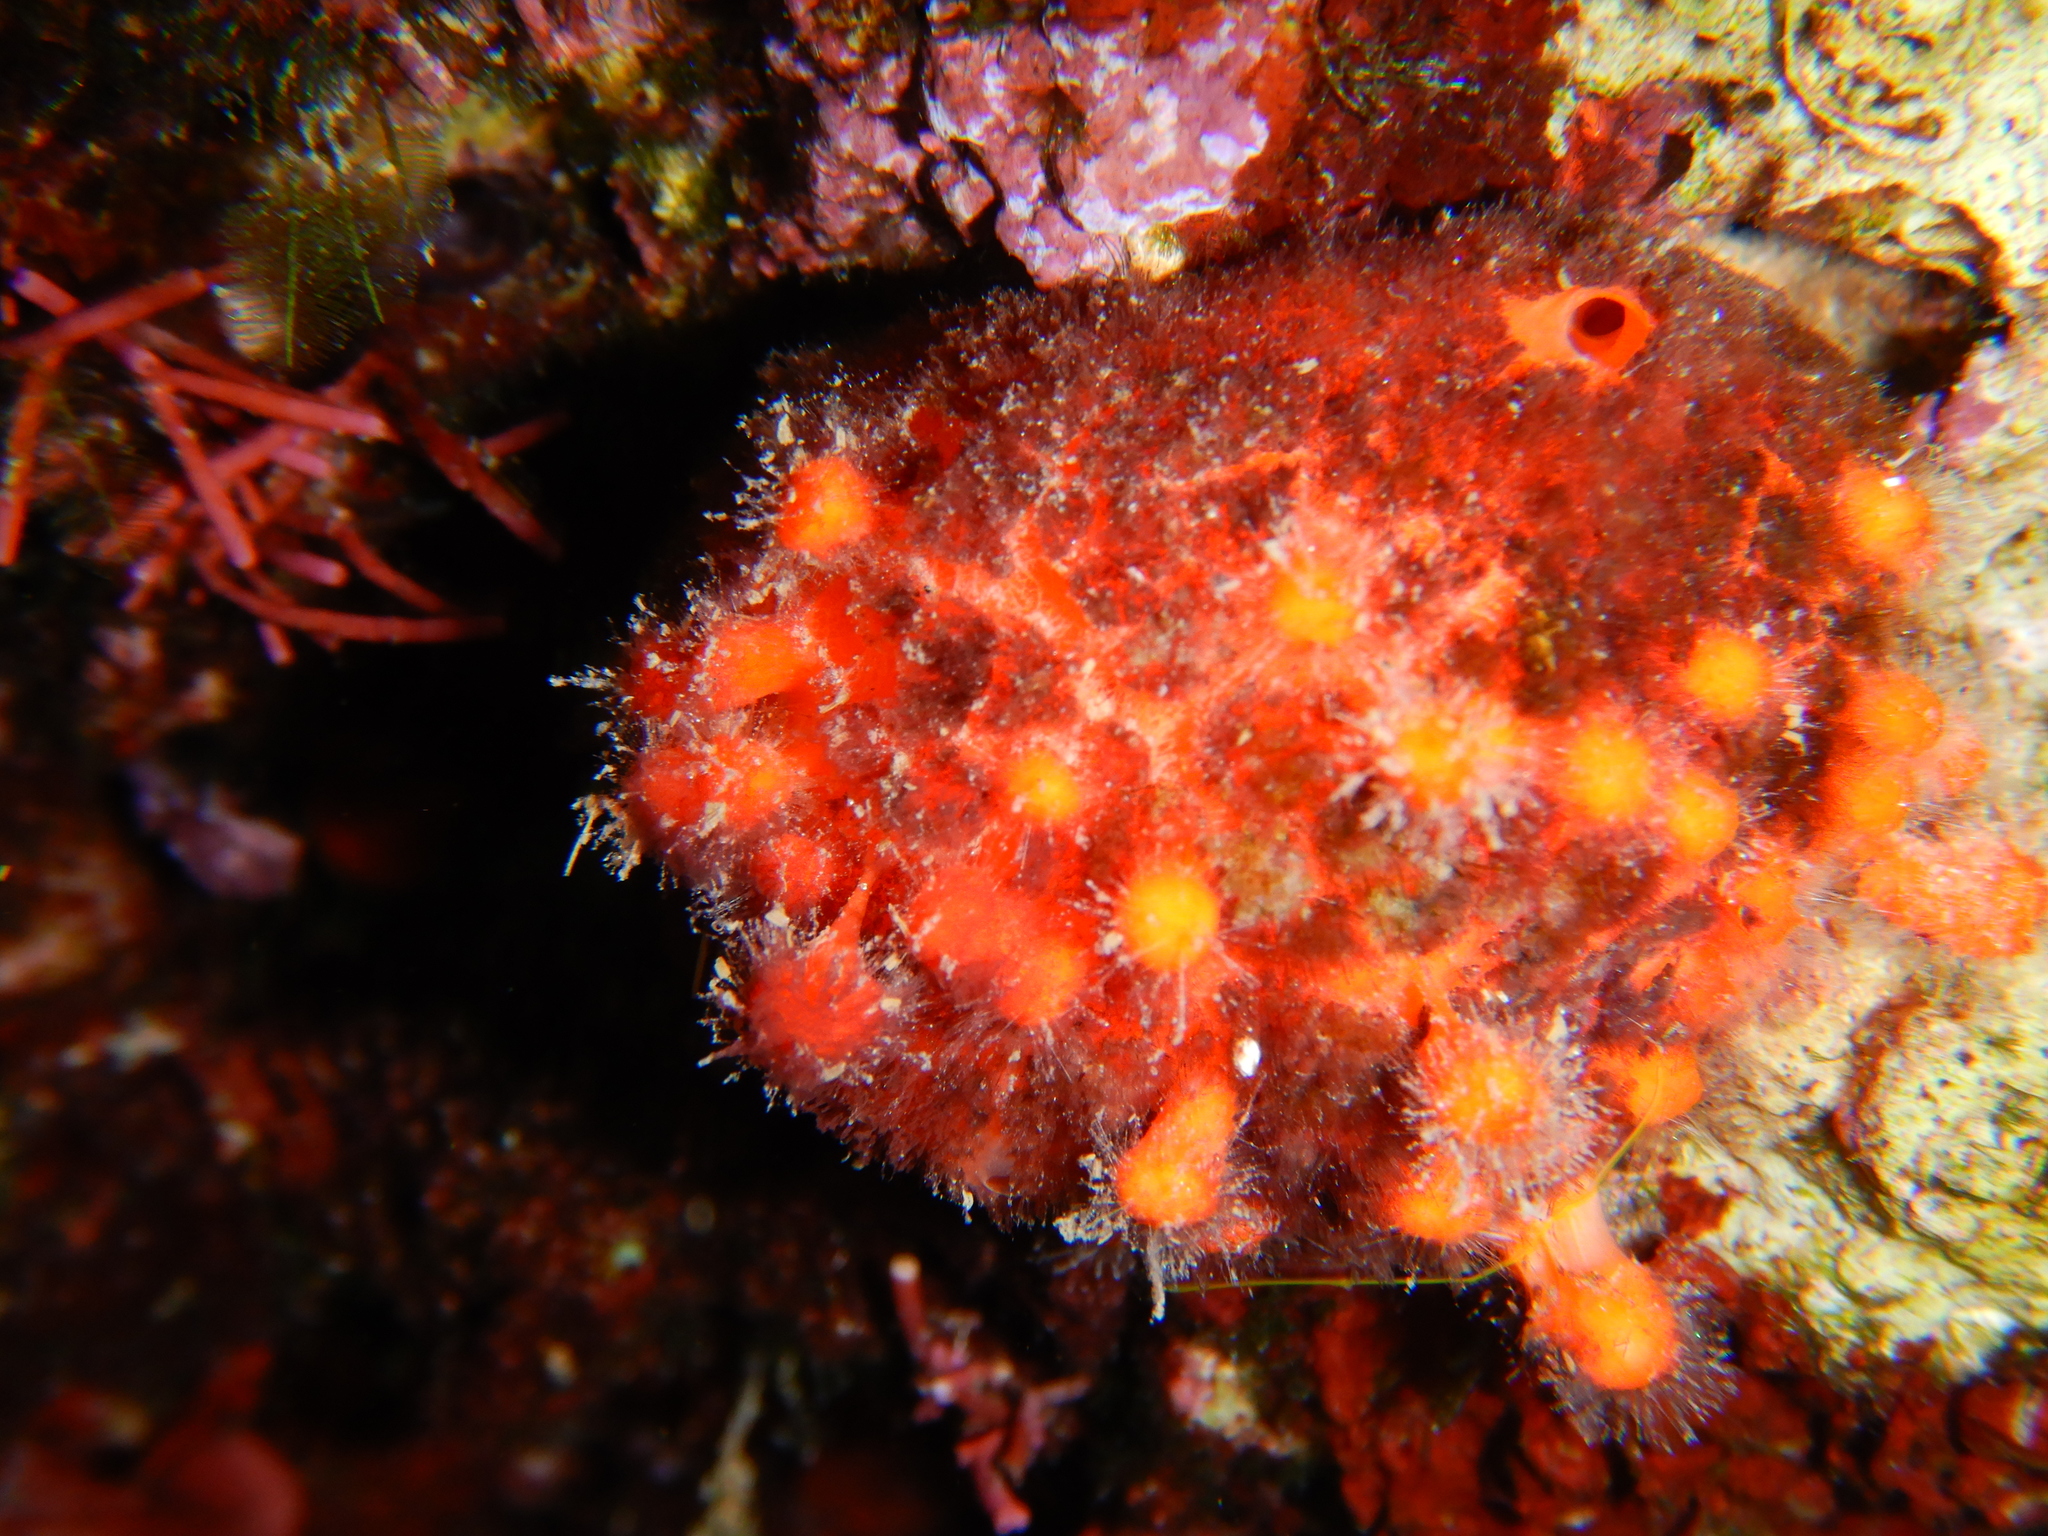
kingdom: Animalia
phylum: Porifera
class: Demospongiae
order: Tethyida
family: Tethyidae
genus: Tethya
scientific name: Tethya aurantium
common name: Golf ball sponge
